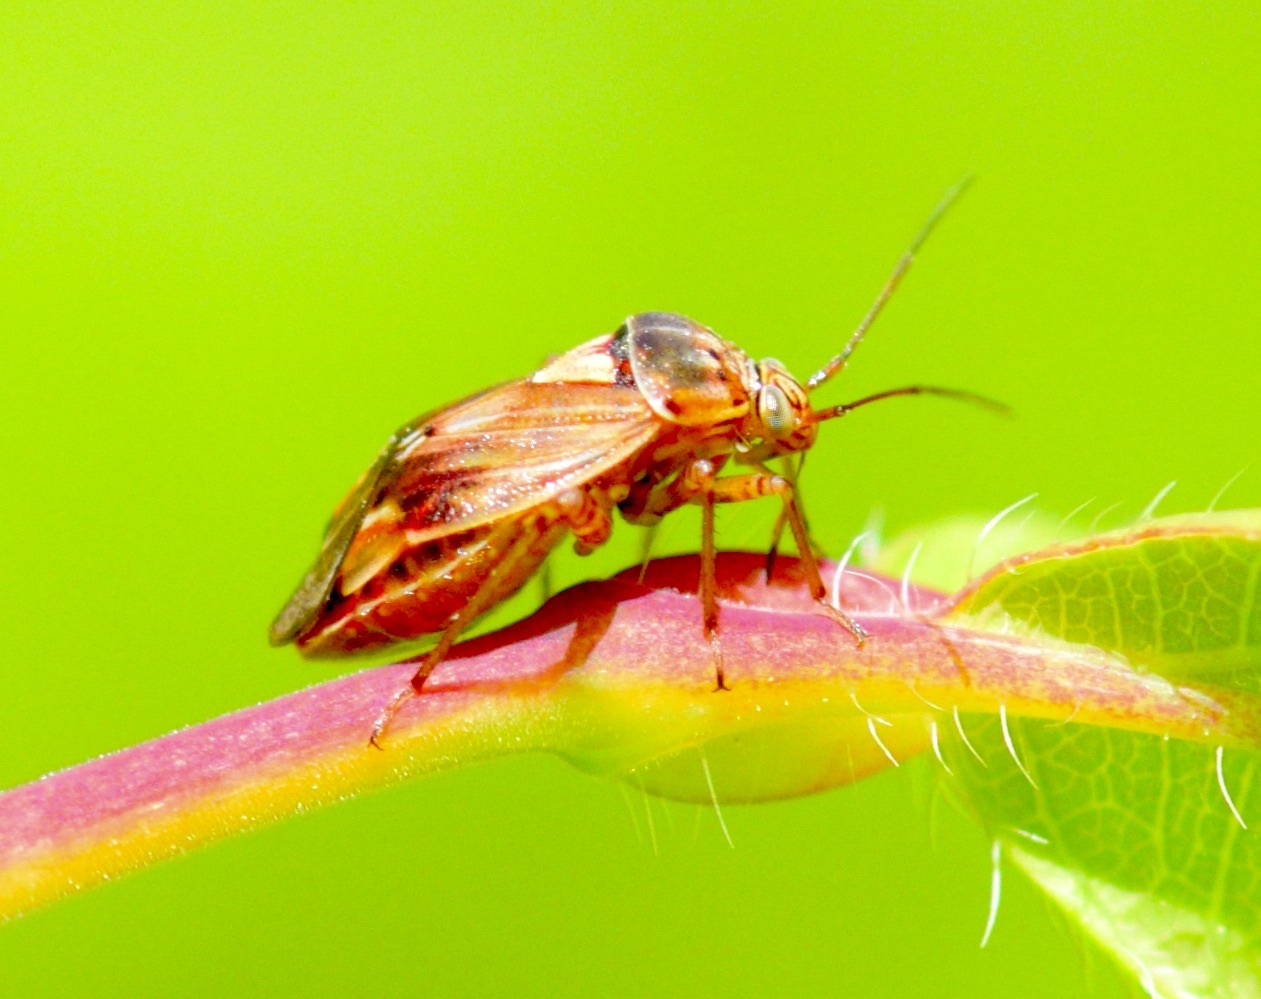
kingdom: Animalia
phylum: Arthropoda
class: Insecta
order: Hemiptera
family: Miridae
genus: Lygus
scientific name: Lygus lineolaris
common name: North american tarnished plant bug
